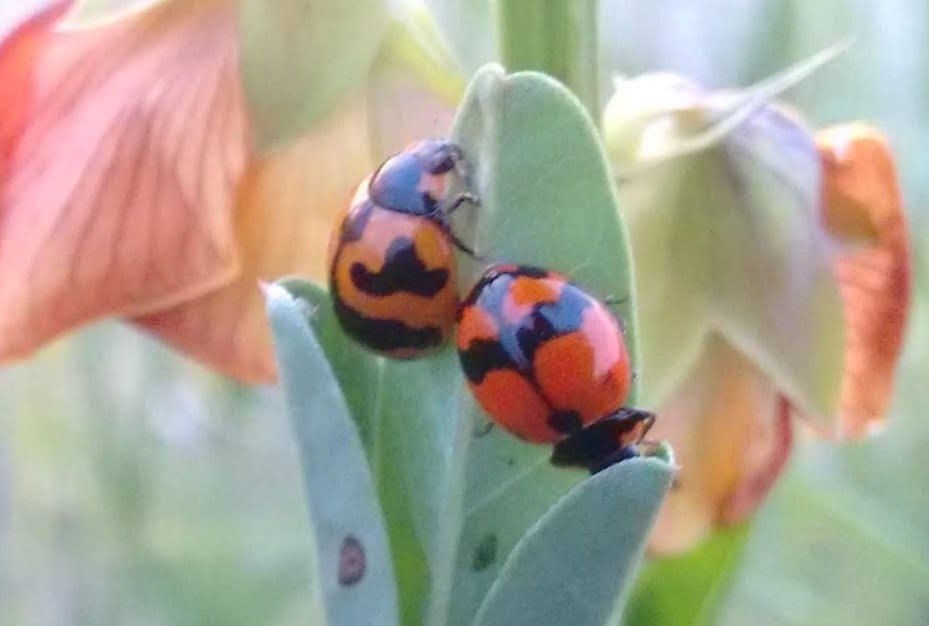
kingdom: Animalia
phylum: Arthropoda
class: Insecta
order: Coleoptera
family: Coccinellidae
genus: Coccinella
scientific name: Coccinella transversalis
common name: Transverse lady beetle
